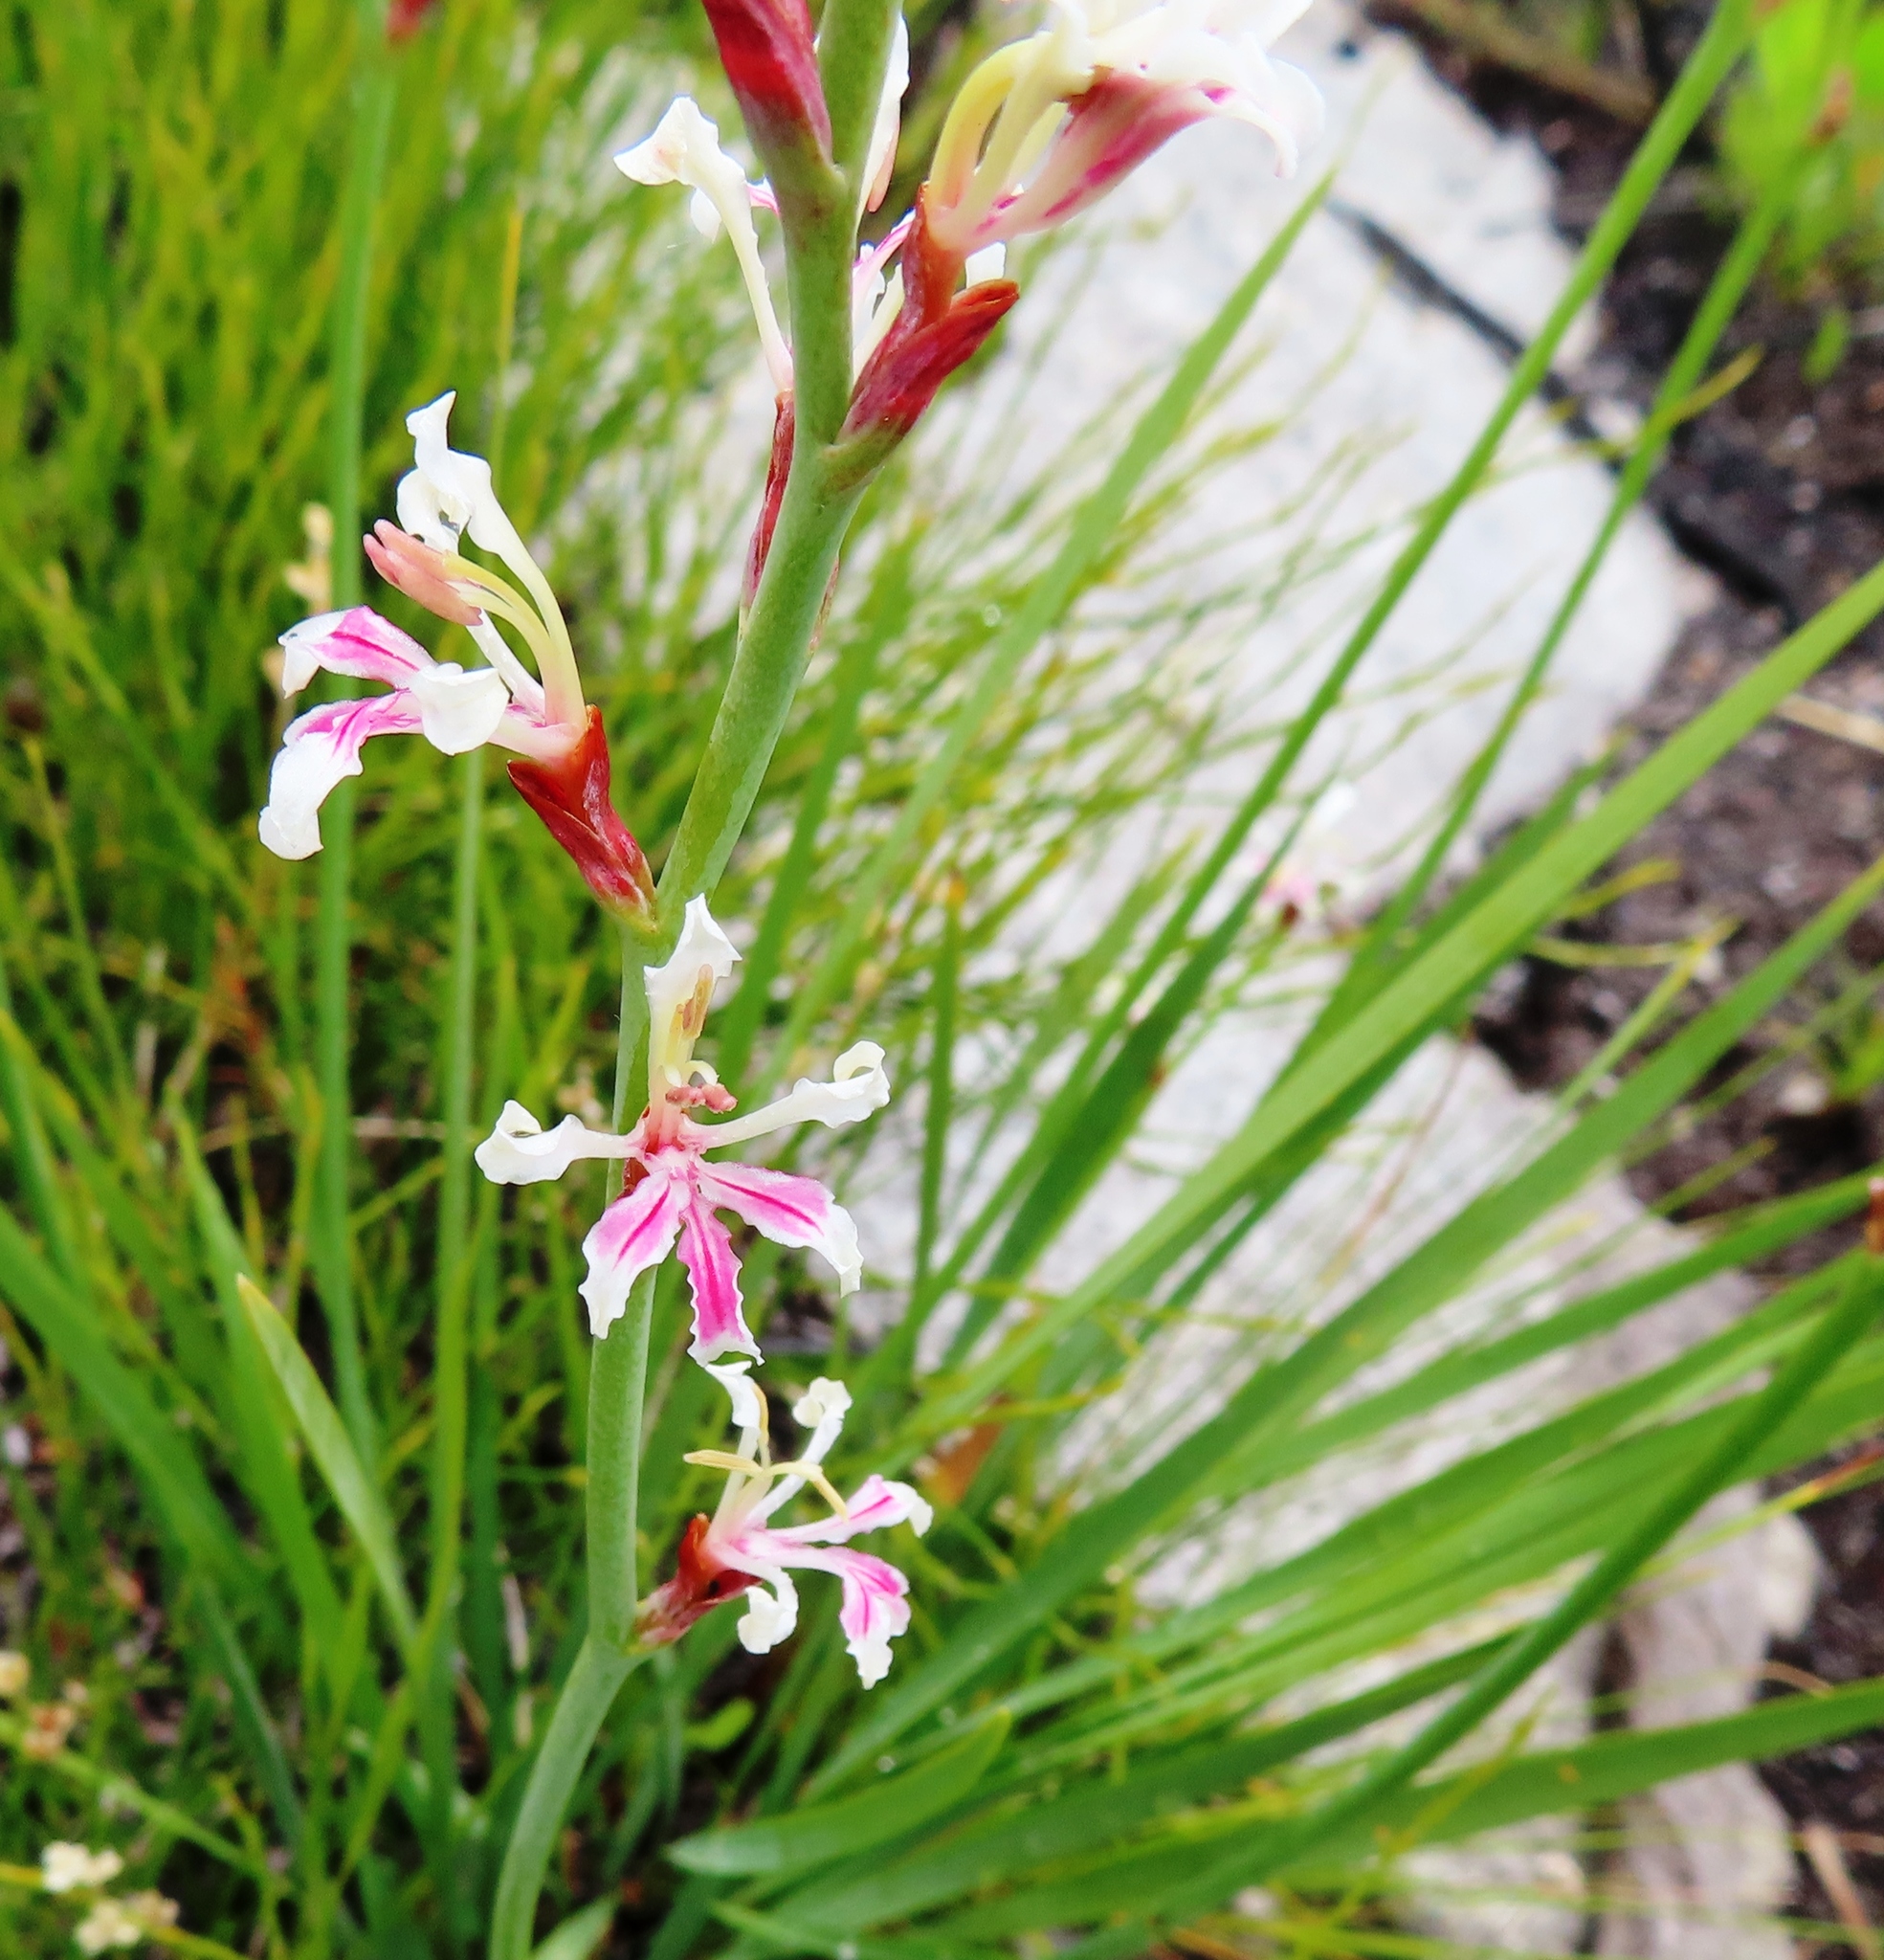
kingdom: Plantae
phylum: Tracheophyta
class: Liliopsida
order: Asparagales
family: Iridaceae
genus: Tritoniopsis
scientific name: Tritoniopsis unguicularis
